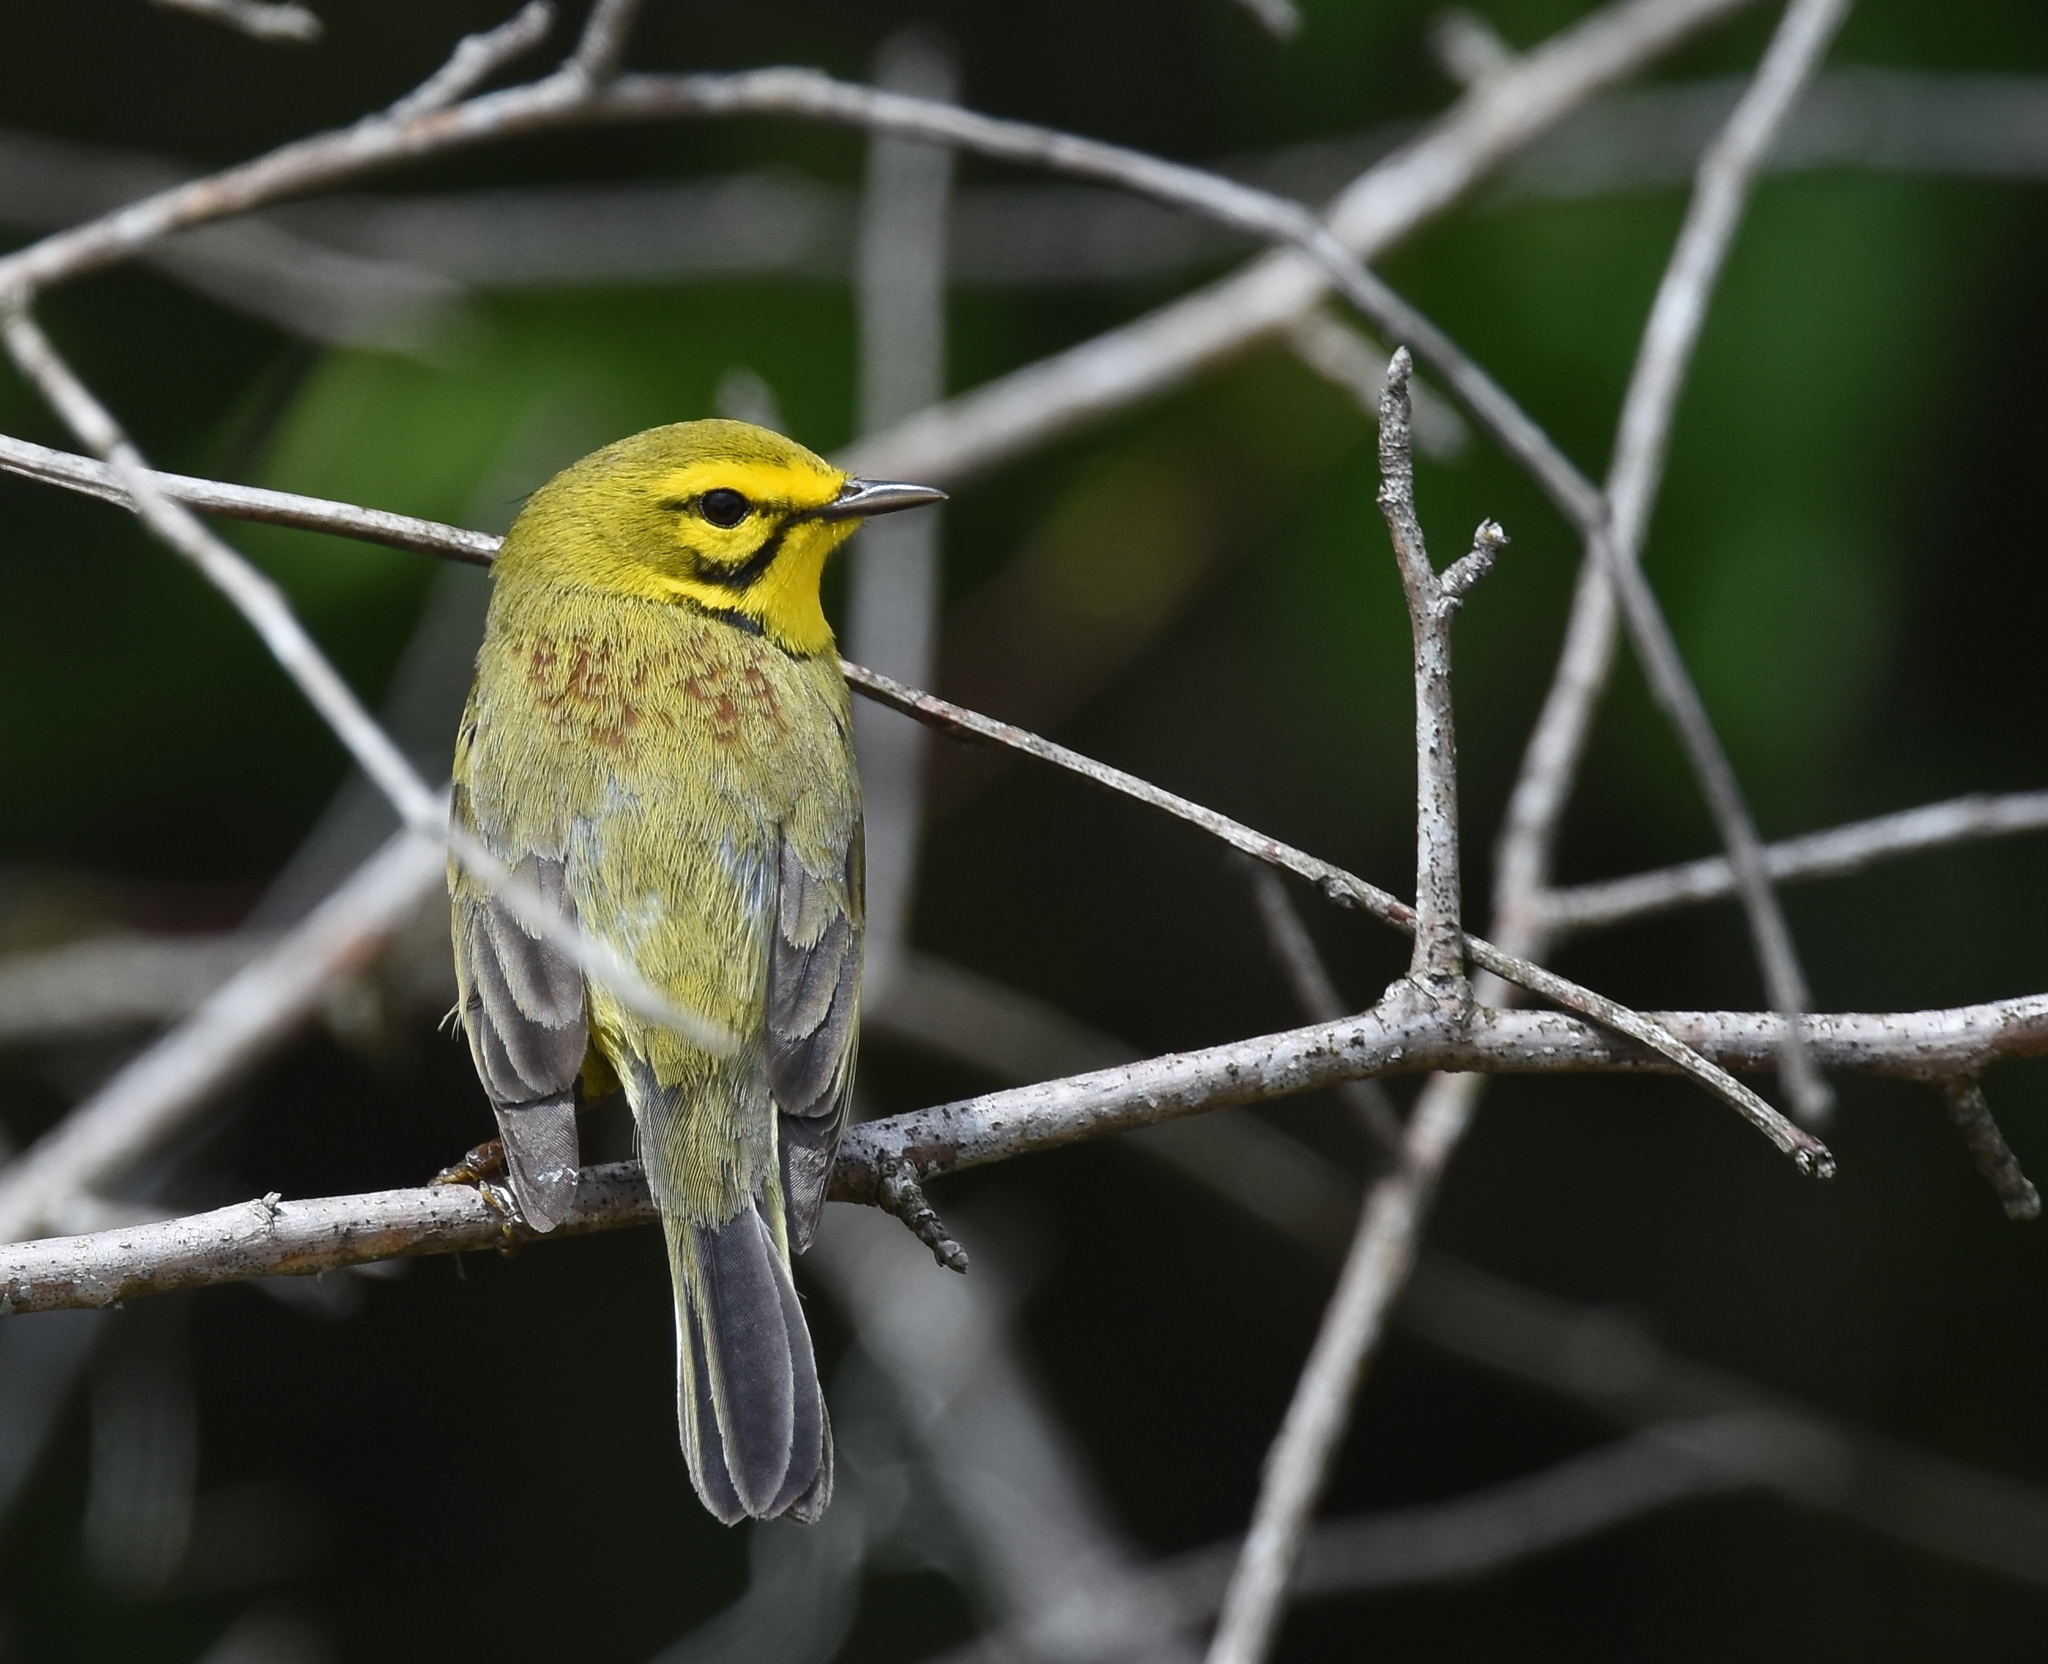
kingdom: Animalia
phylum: Chordata
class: Aves
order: Passeriformes
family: Parulidae
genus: Setophaga
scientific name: Setophaga discolor
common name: Prairie warbler
